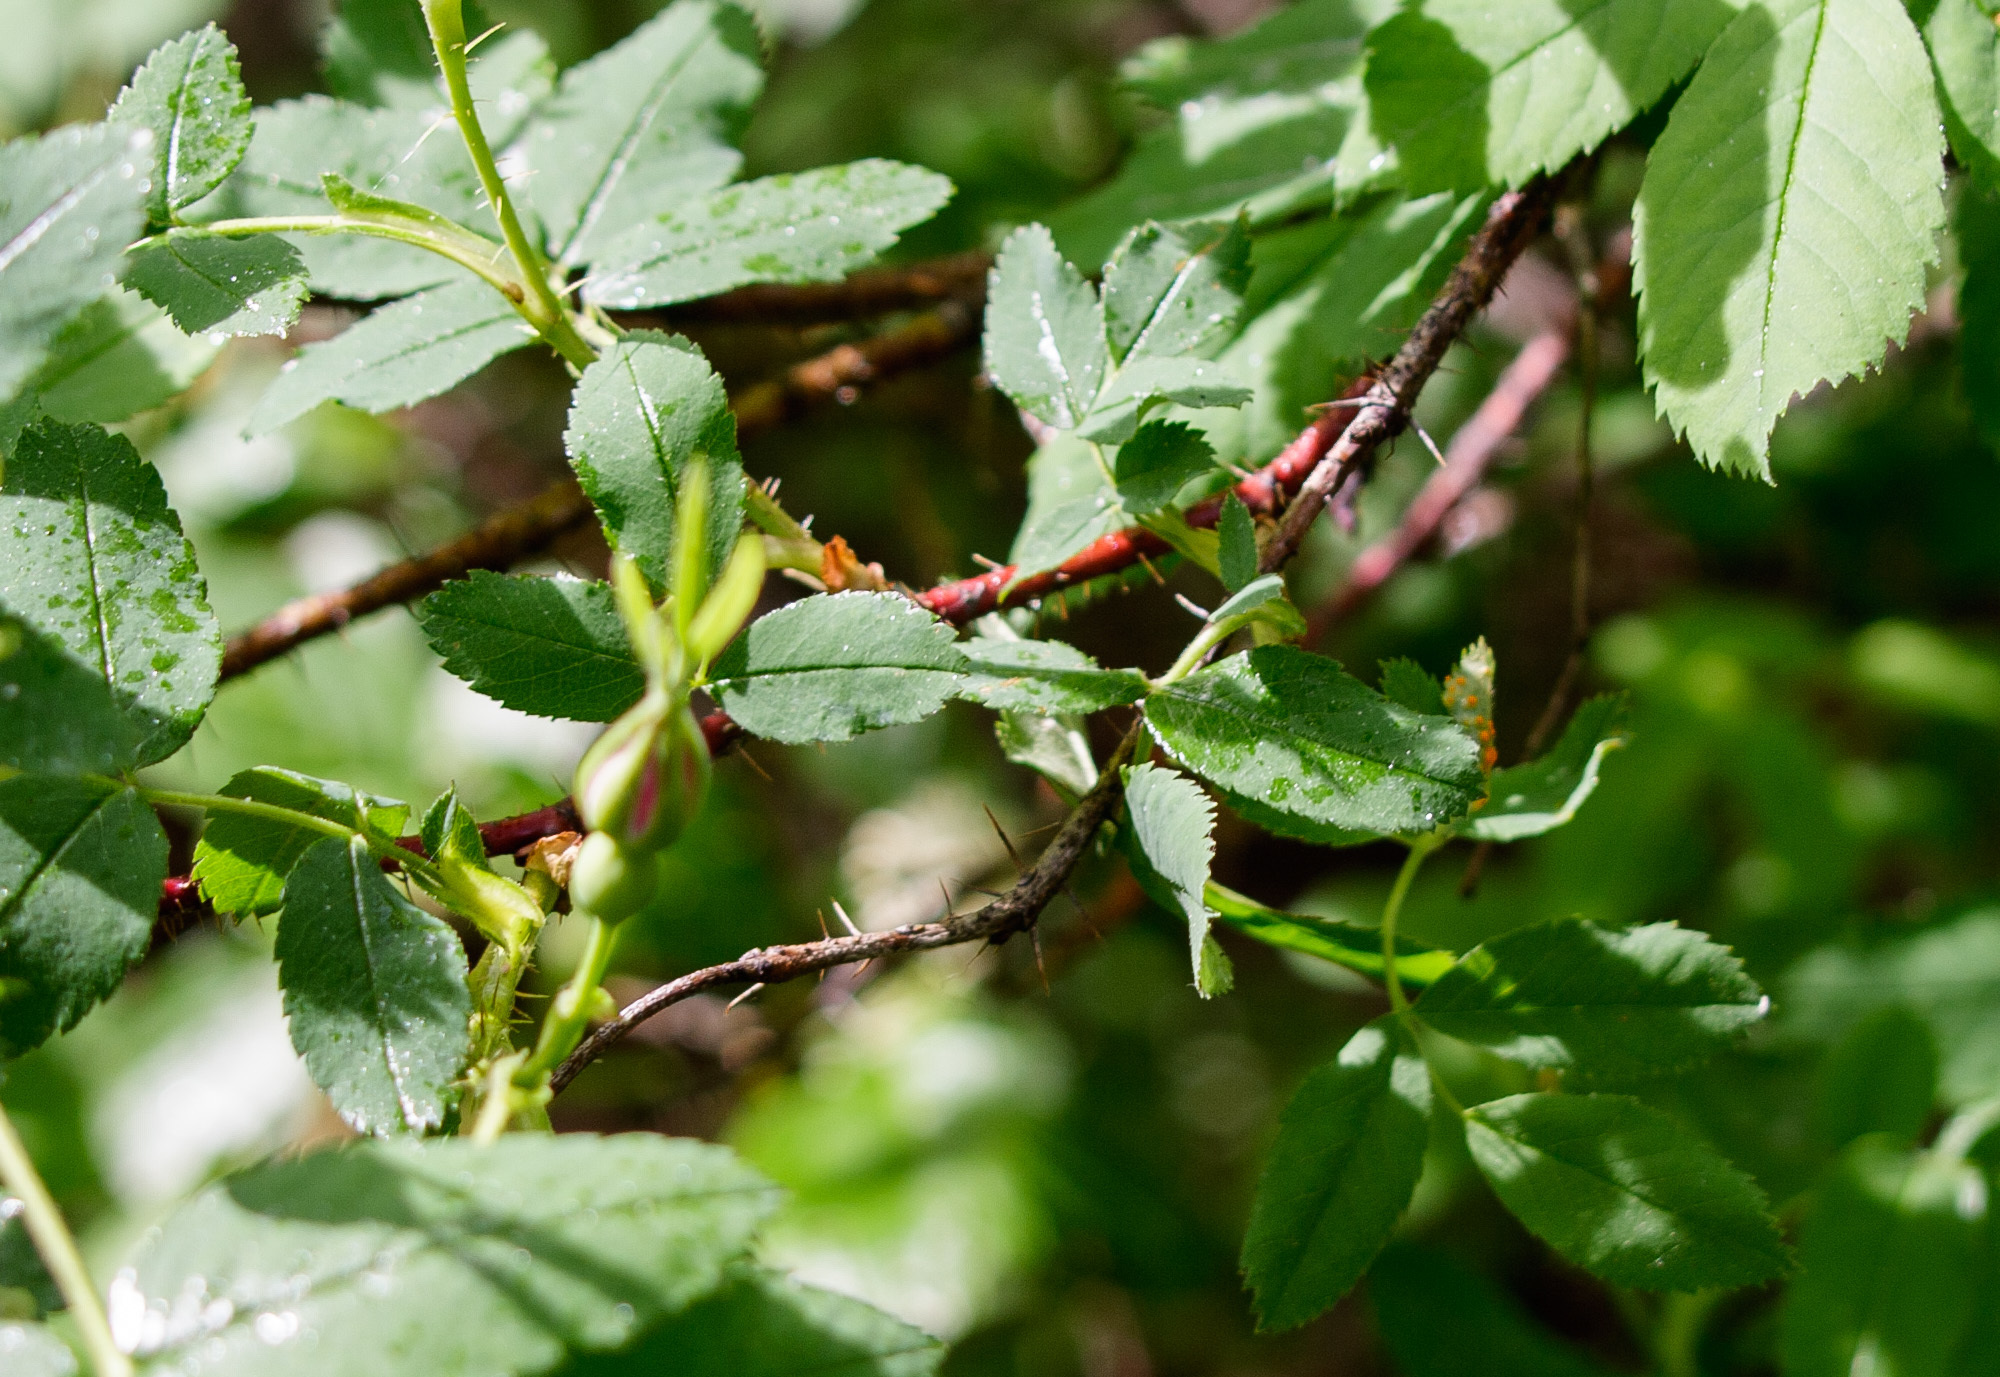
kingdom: Plantae
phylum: Tracheophyta
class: Magnoliopsida
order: Rosales
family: Rosaceae
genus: Rosa
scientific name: Rosa acicularis
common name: Prickly rose
